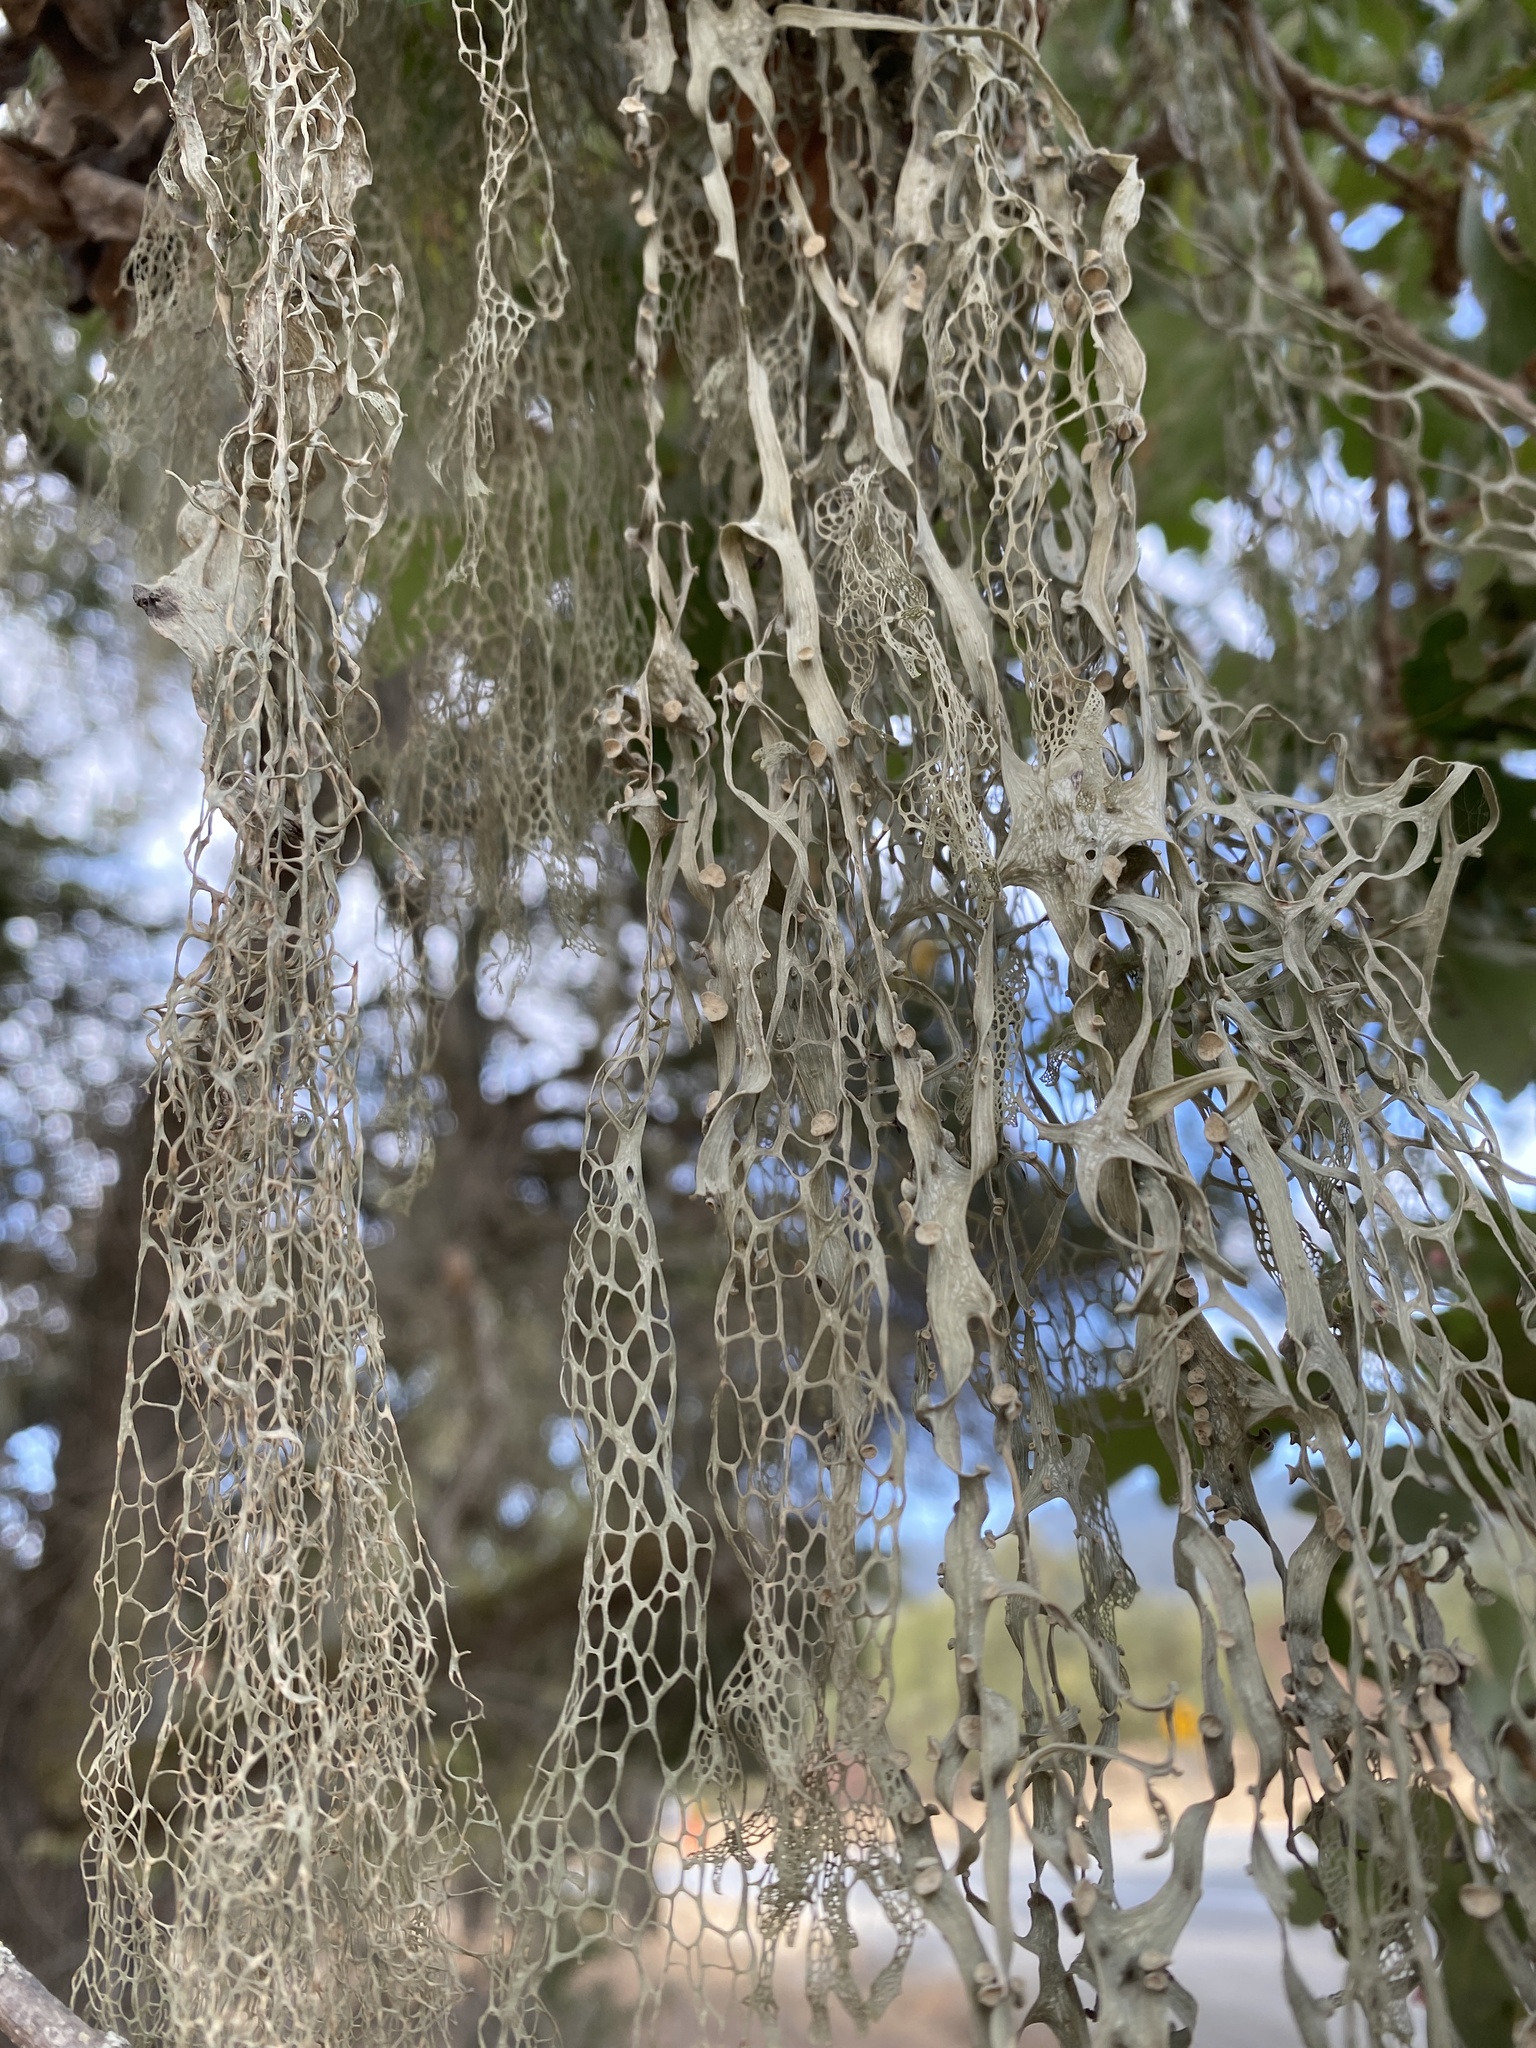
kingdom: Fungi
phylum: Ascomycota
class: Lecanoromycetes
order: Lecanorales
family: Ramalinaceae
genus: Ramalina
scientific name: Ramalina menziesii
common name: Lace lichen
